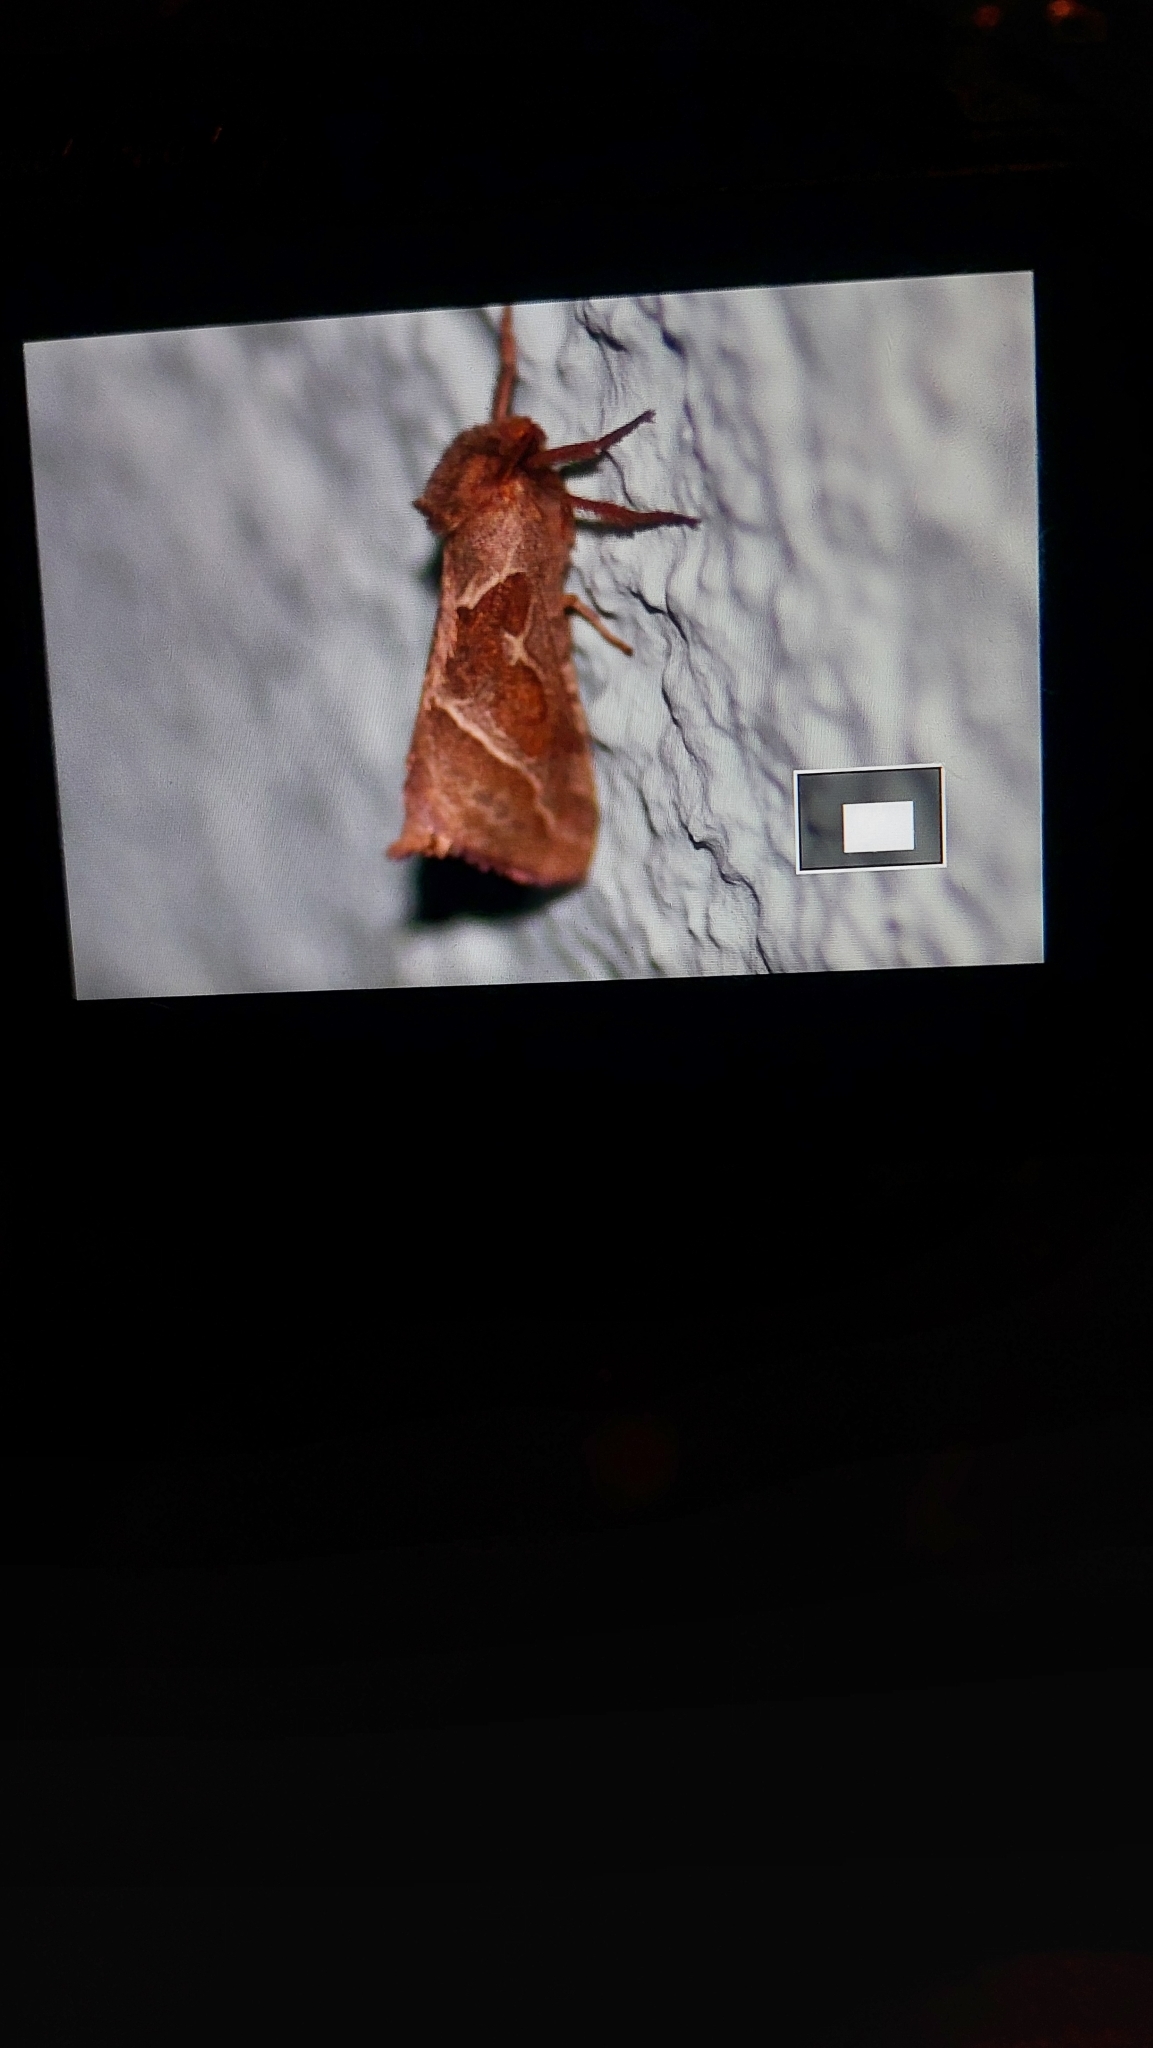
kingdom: Animalia
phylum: Arthropoda
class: Insecta
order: Lepidoptera
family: Hepialidae
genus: Triodia
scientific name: Triodia sylvina
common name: Orange swift
